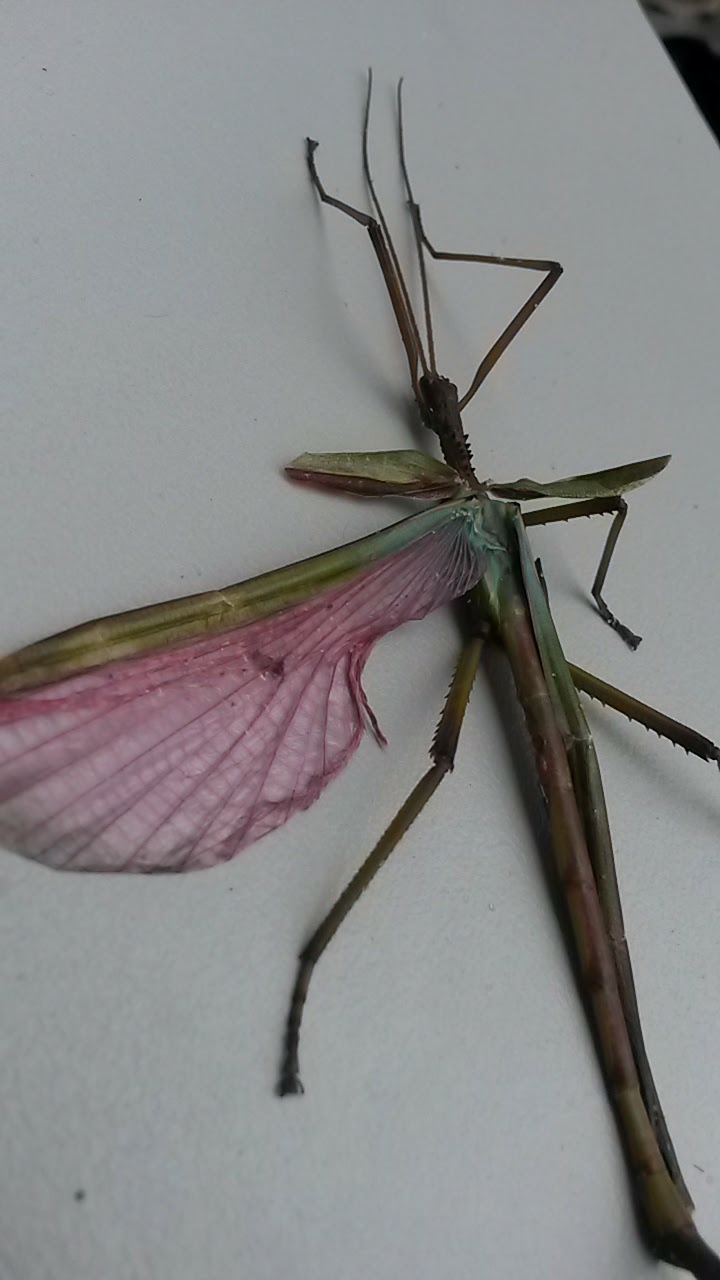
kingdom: Animalia
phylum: Arthropoda
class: Insecta
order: Phasmida
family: Phasmatidae
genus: Podacanthus
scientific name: Podacanthus viridiroseus
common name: Red-winged stick-insect
